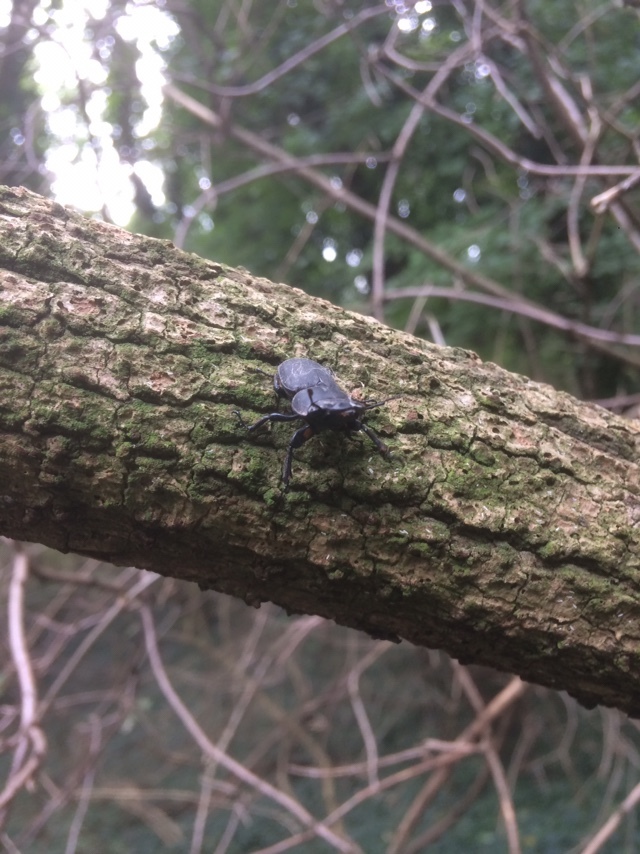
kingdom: Animalia
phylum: Arthropoda
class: Insecta
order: Coleoptera
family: Lucanidae
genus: Dorcus
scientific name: Dorcus parallelipipedus
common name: Lesser stag beetle
